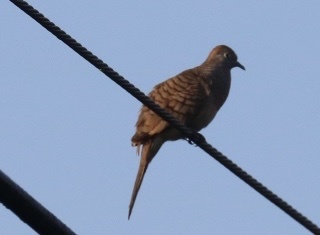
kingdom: Animalia
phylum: Chordata
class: Aves
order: Columbiformes
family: Columbidae
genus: Geopelia
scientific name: Geopelia striata
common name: Zebra dove
